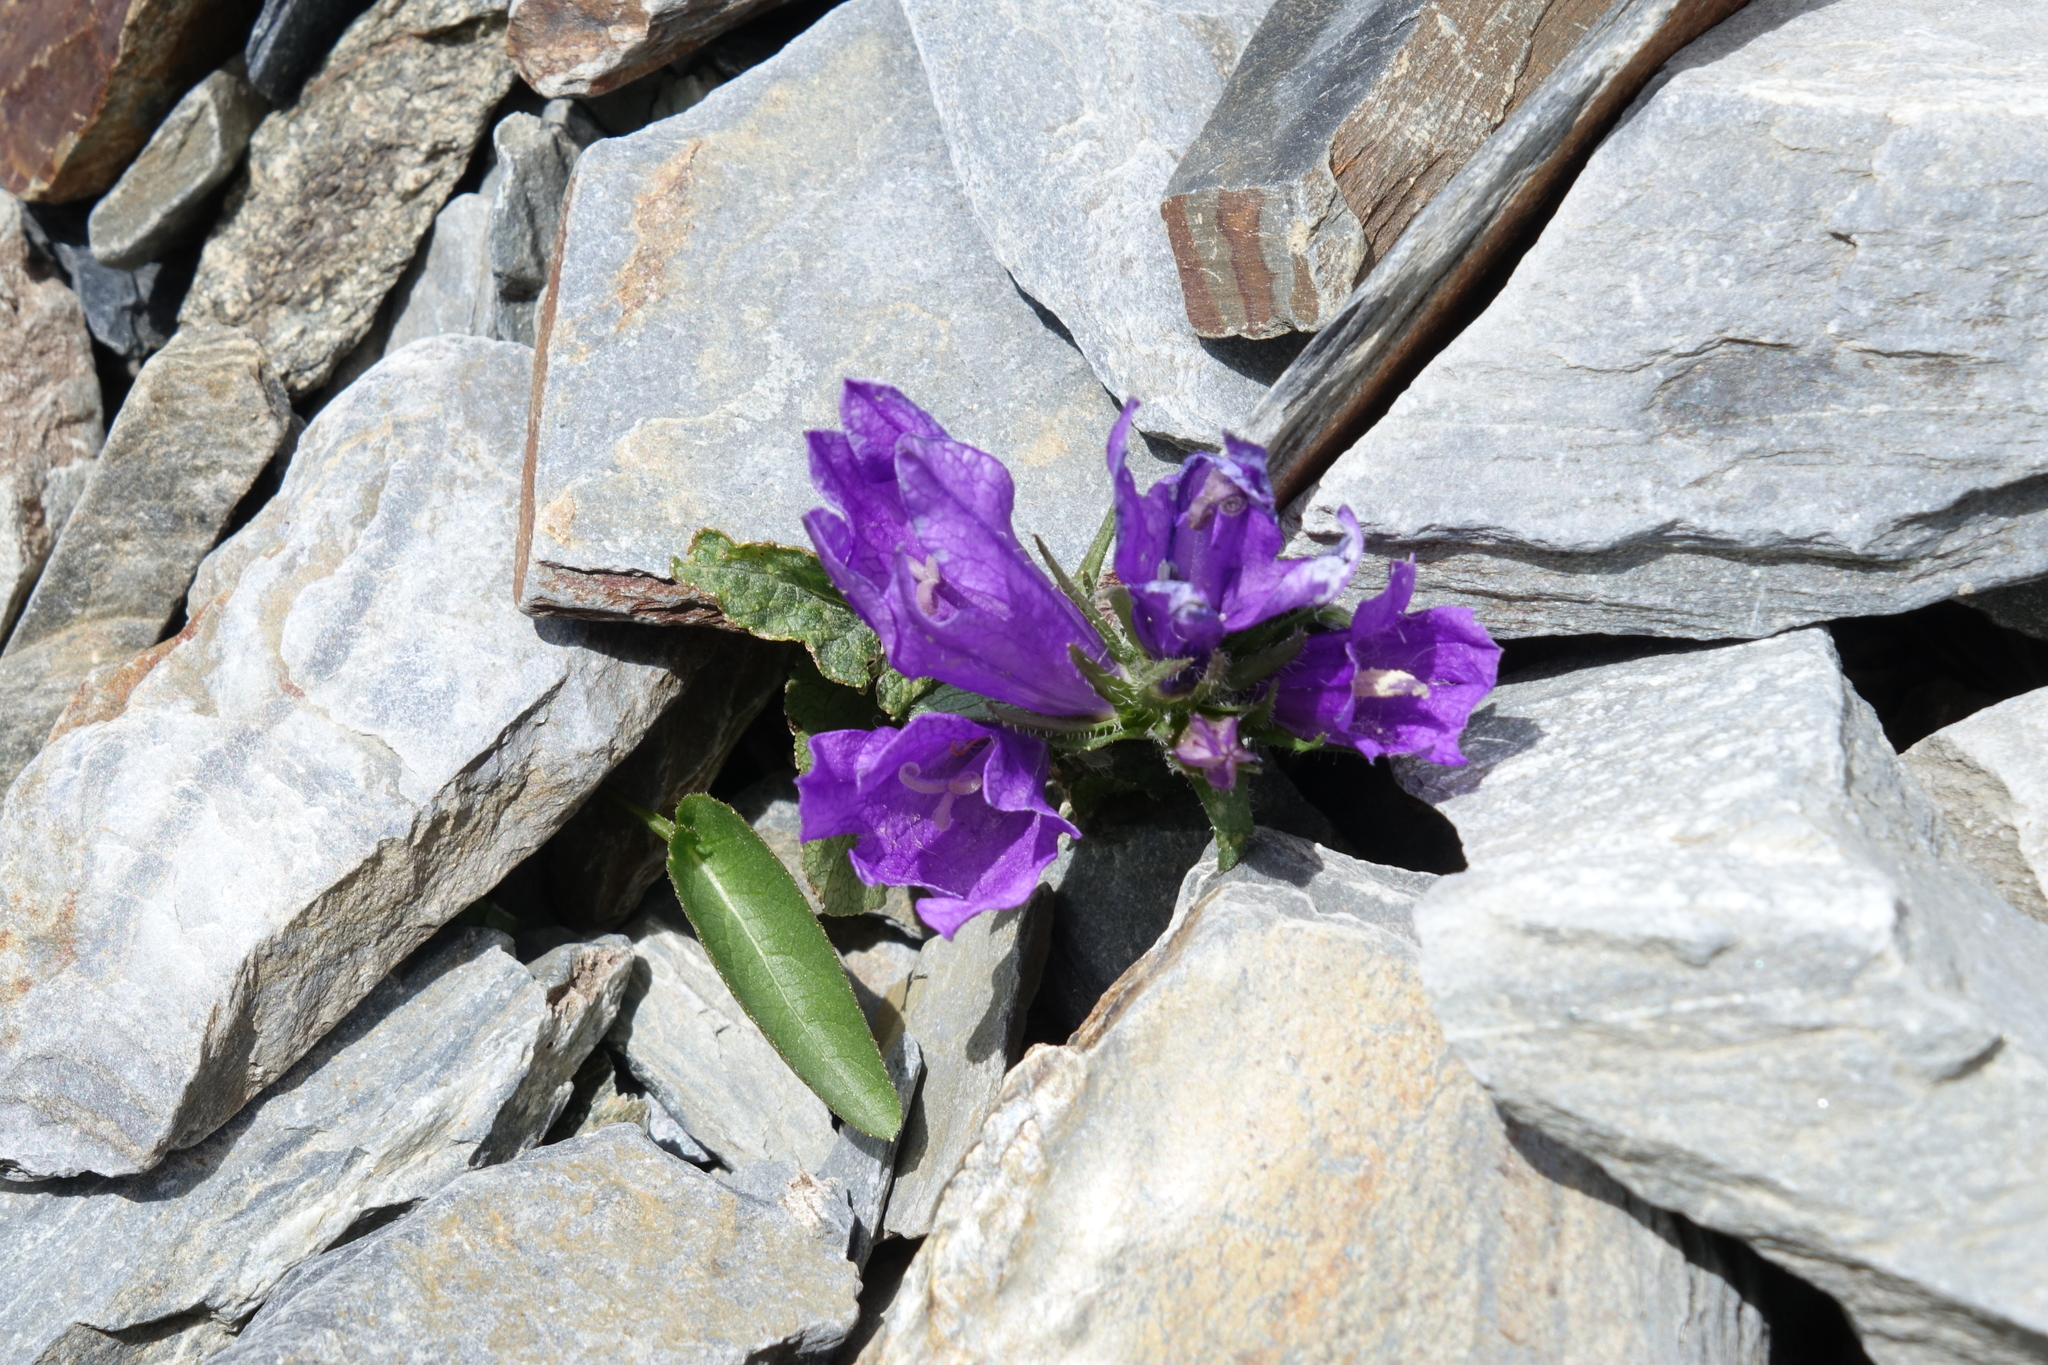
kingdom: Plantae
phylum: Tracheophyta
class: Magnoliopsida
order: Asterales
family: Campanulaceae
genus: Campanula
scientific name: Campanula glomerata
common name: Clustered bellflower
